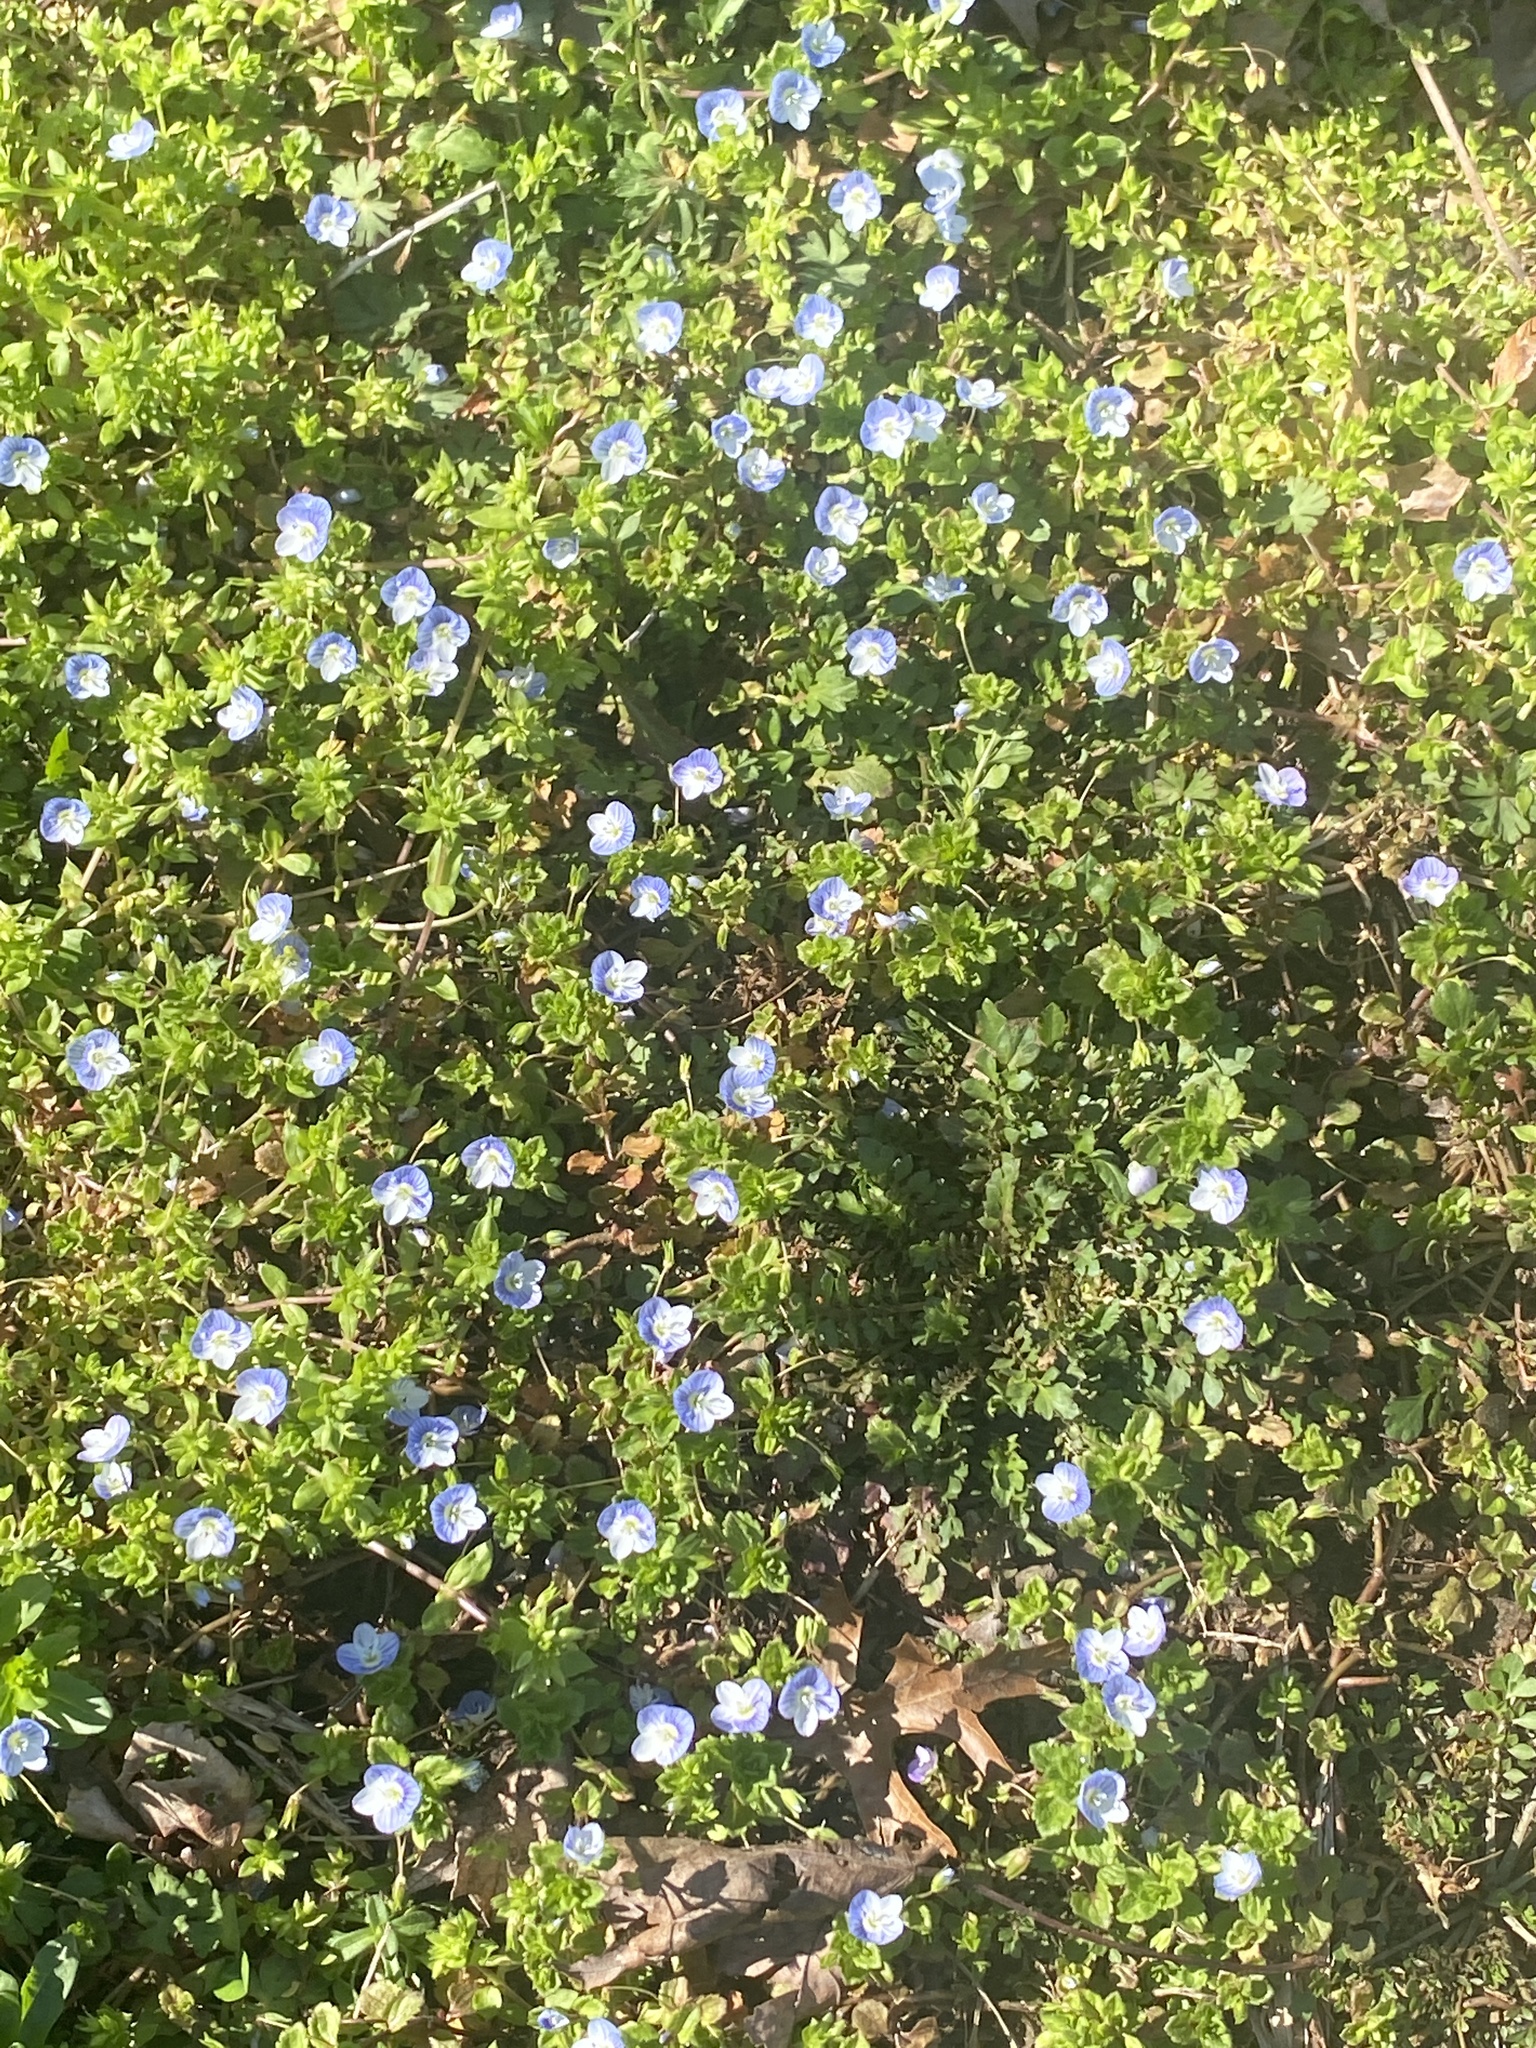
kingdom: Plantae
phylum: Tracheophyta
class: Magnoliopsida
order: Lamiales
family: Plantaginaceae
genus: Veronica
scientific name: Veronica persica
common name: Common field-speedwell
